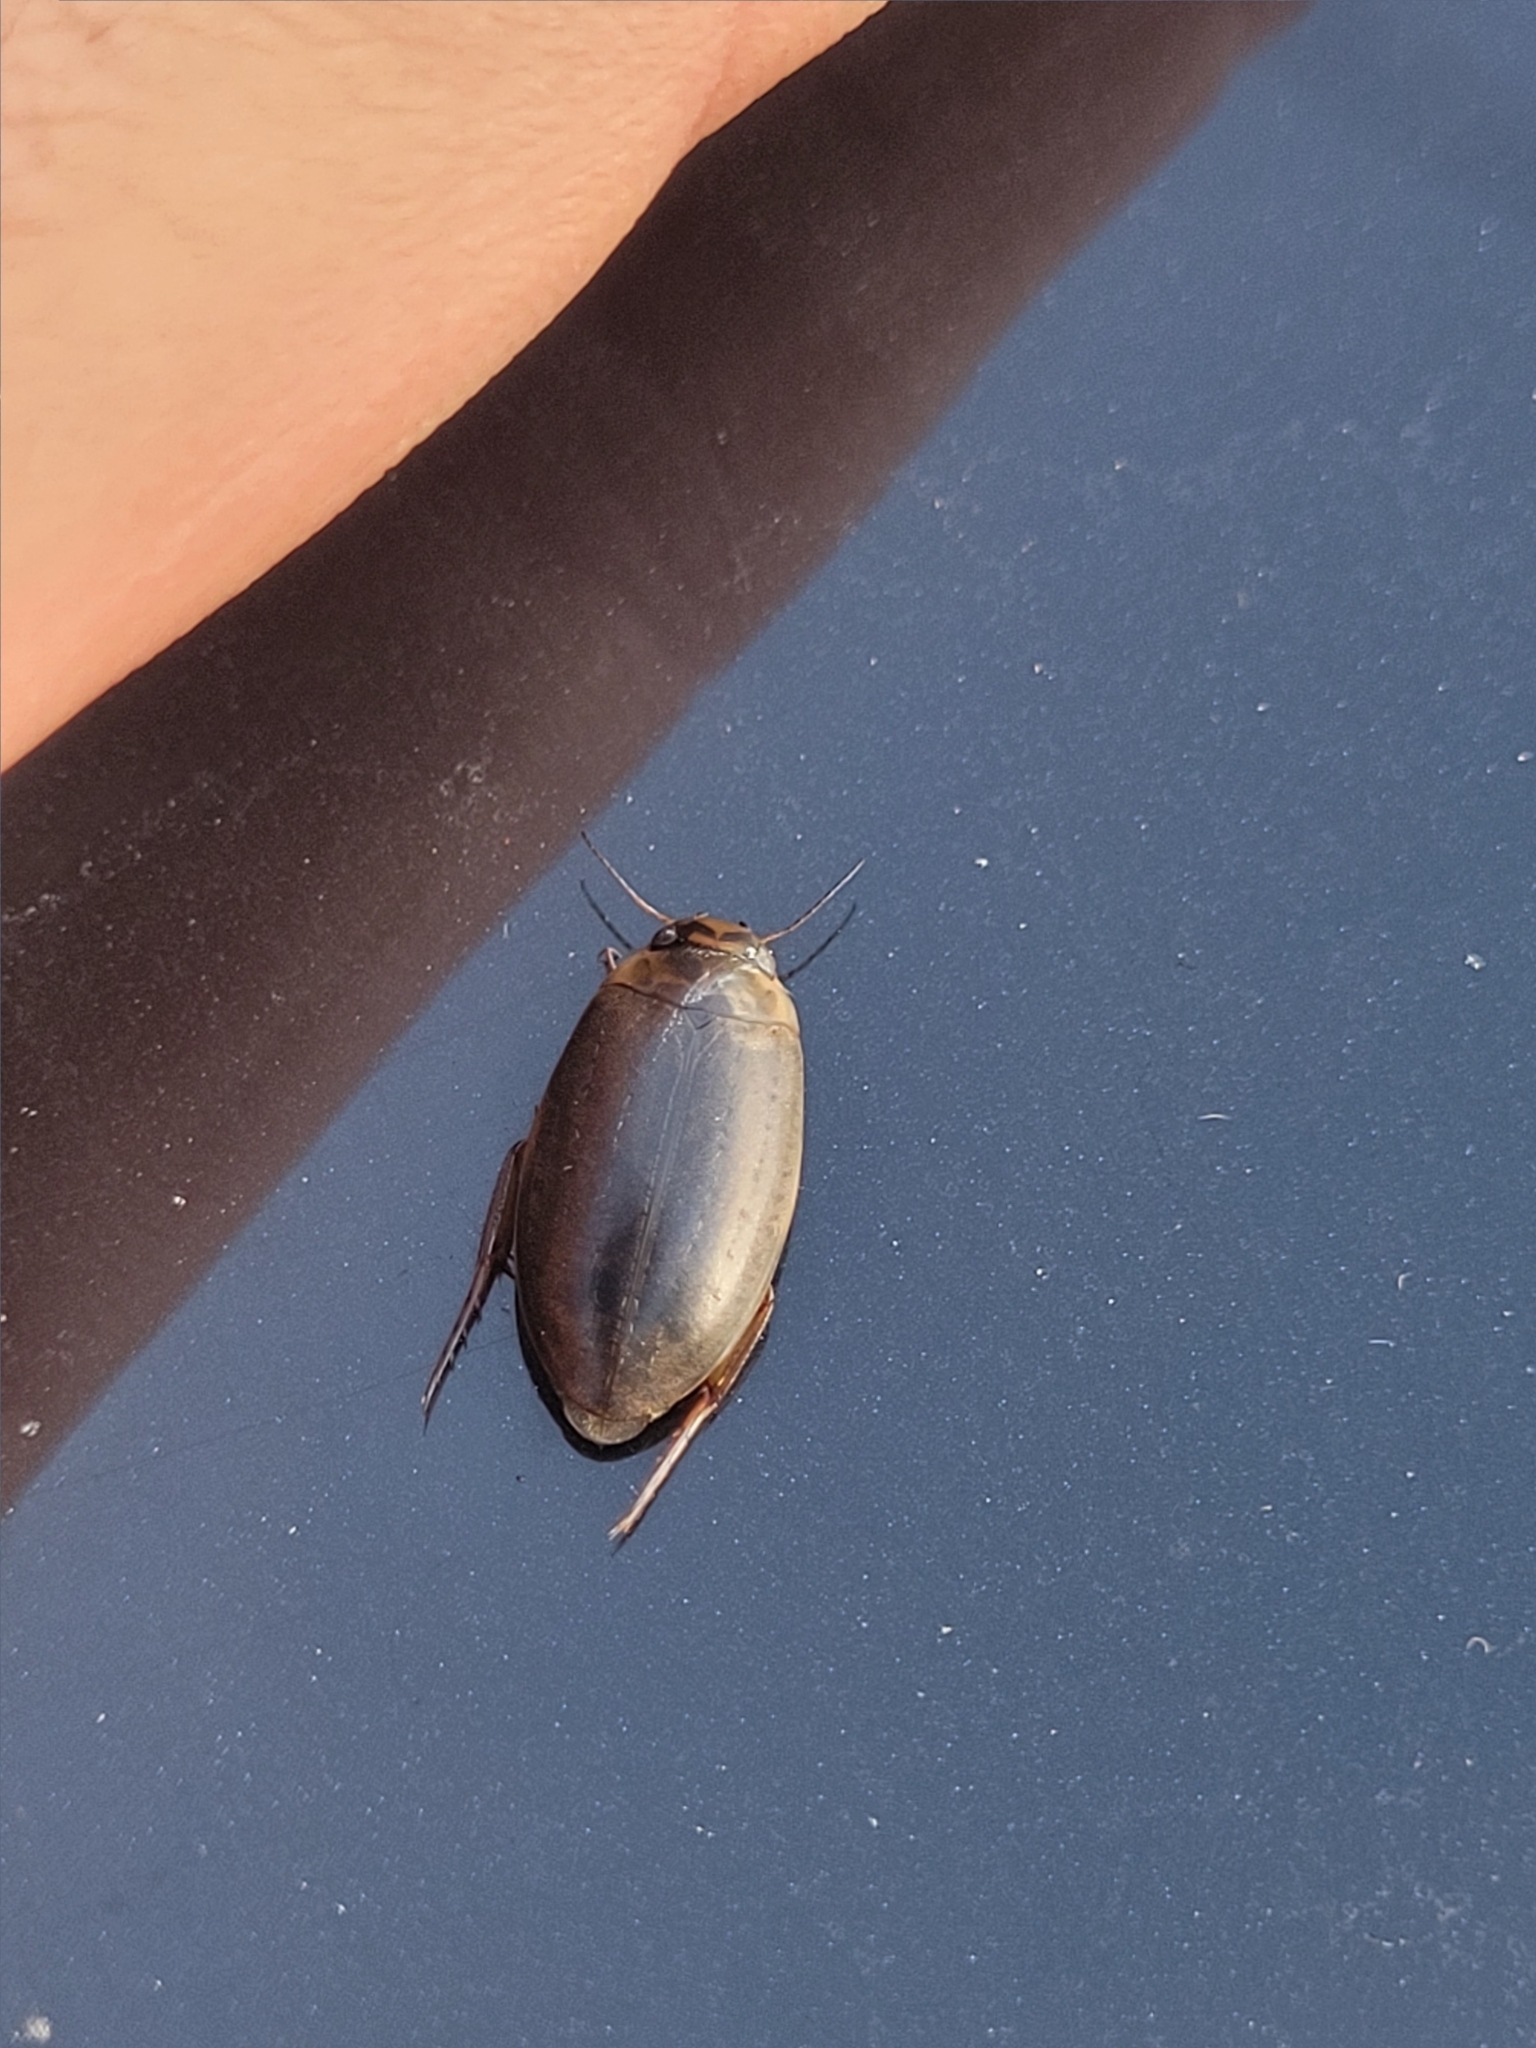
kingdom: Animalia
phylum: Arthropoda
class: Insecta
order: Coleoptera
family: Dytiscidae
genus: Rhantus
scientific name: Rhantus binotatus
